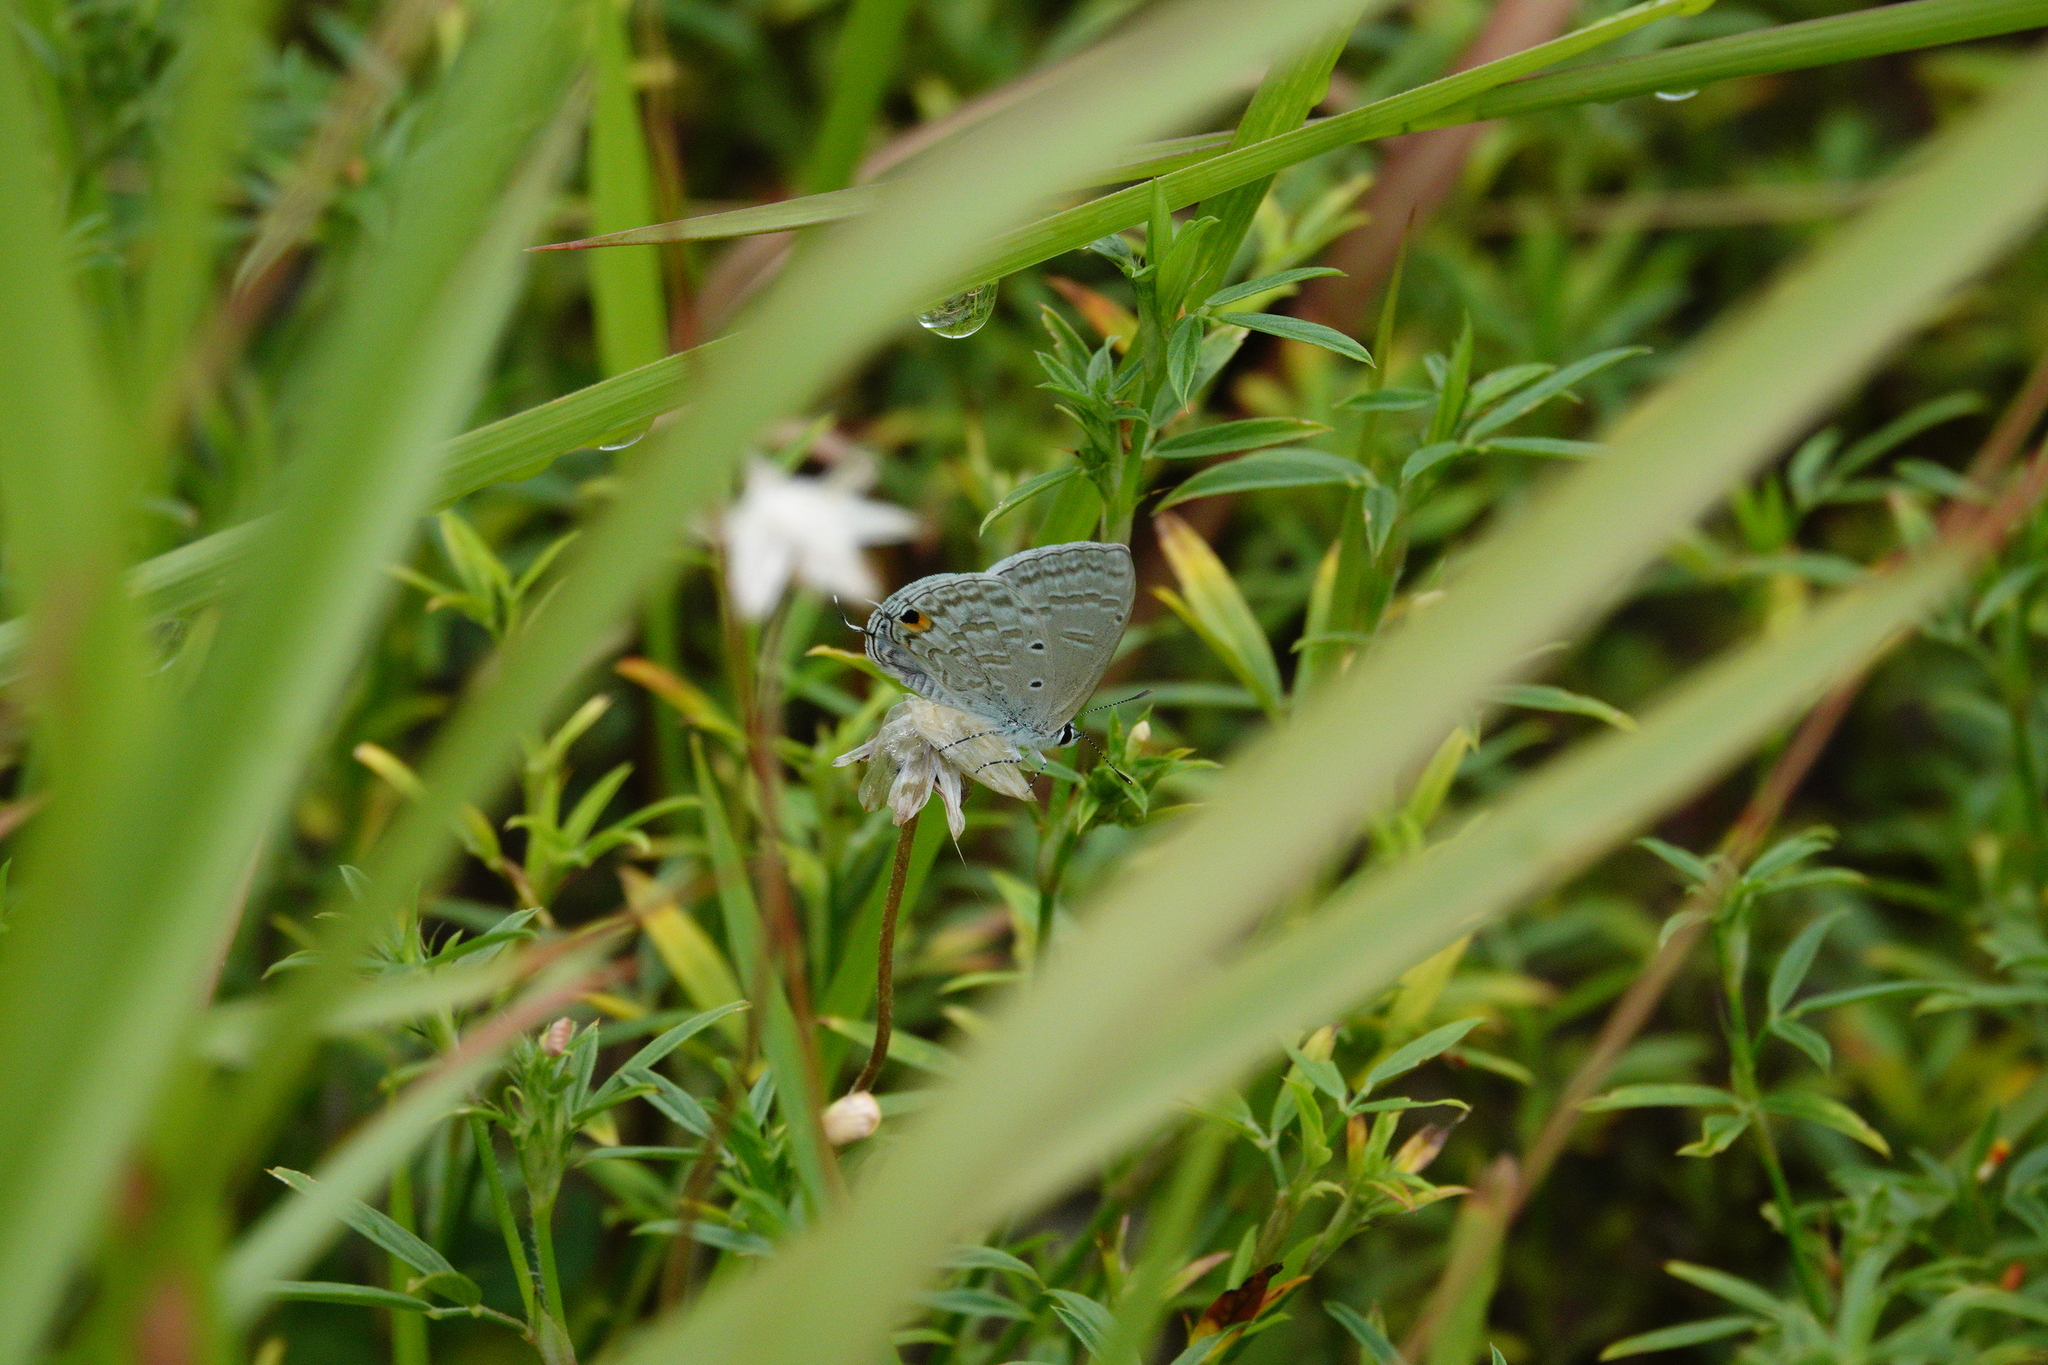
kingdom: Animalia
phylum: Arthropoda
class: Insecta
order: Lepidoptera
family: Lycaenidae
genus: Catochrysops
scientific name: Catochrysops panormus
